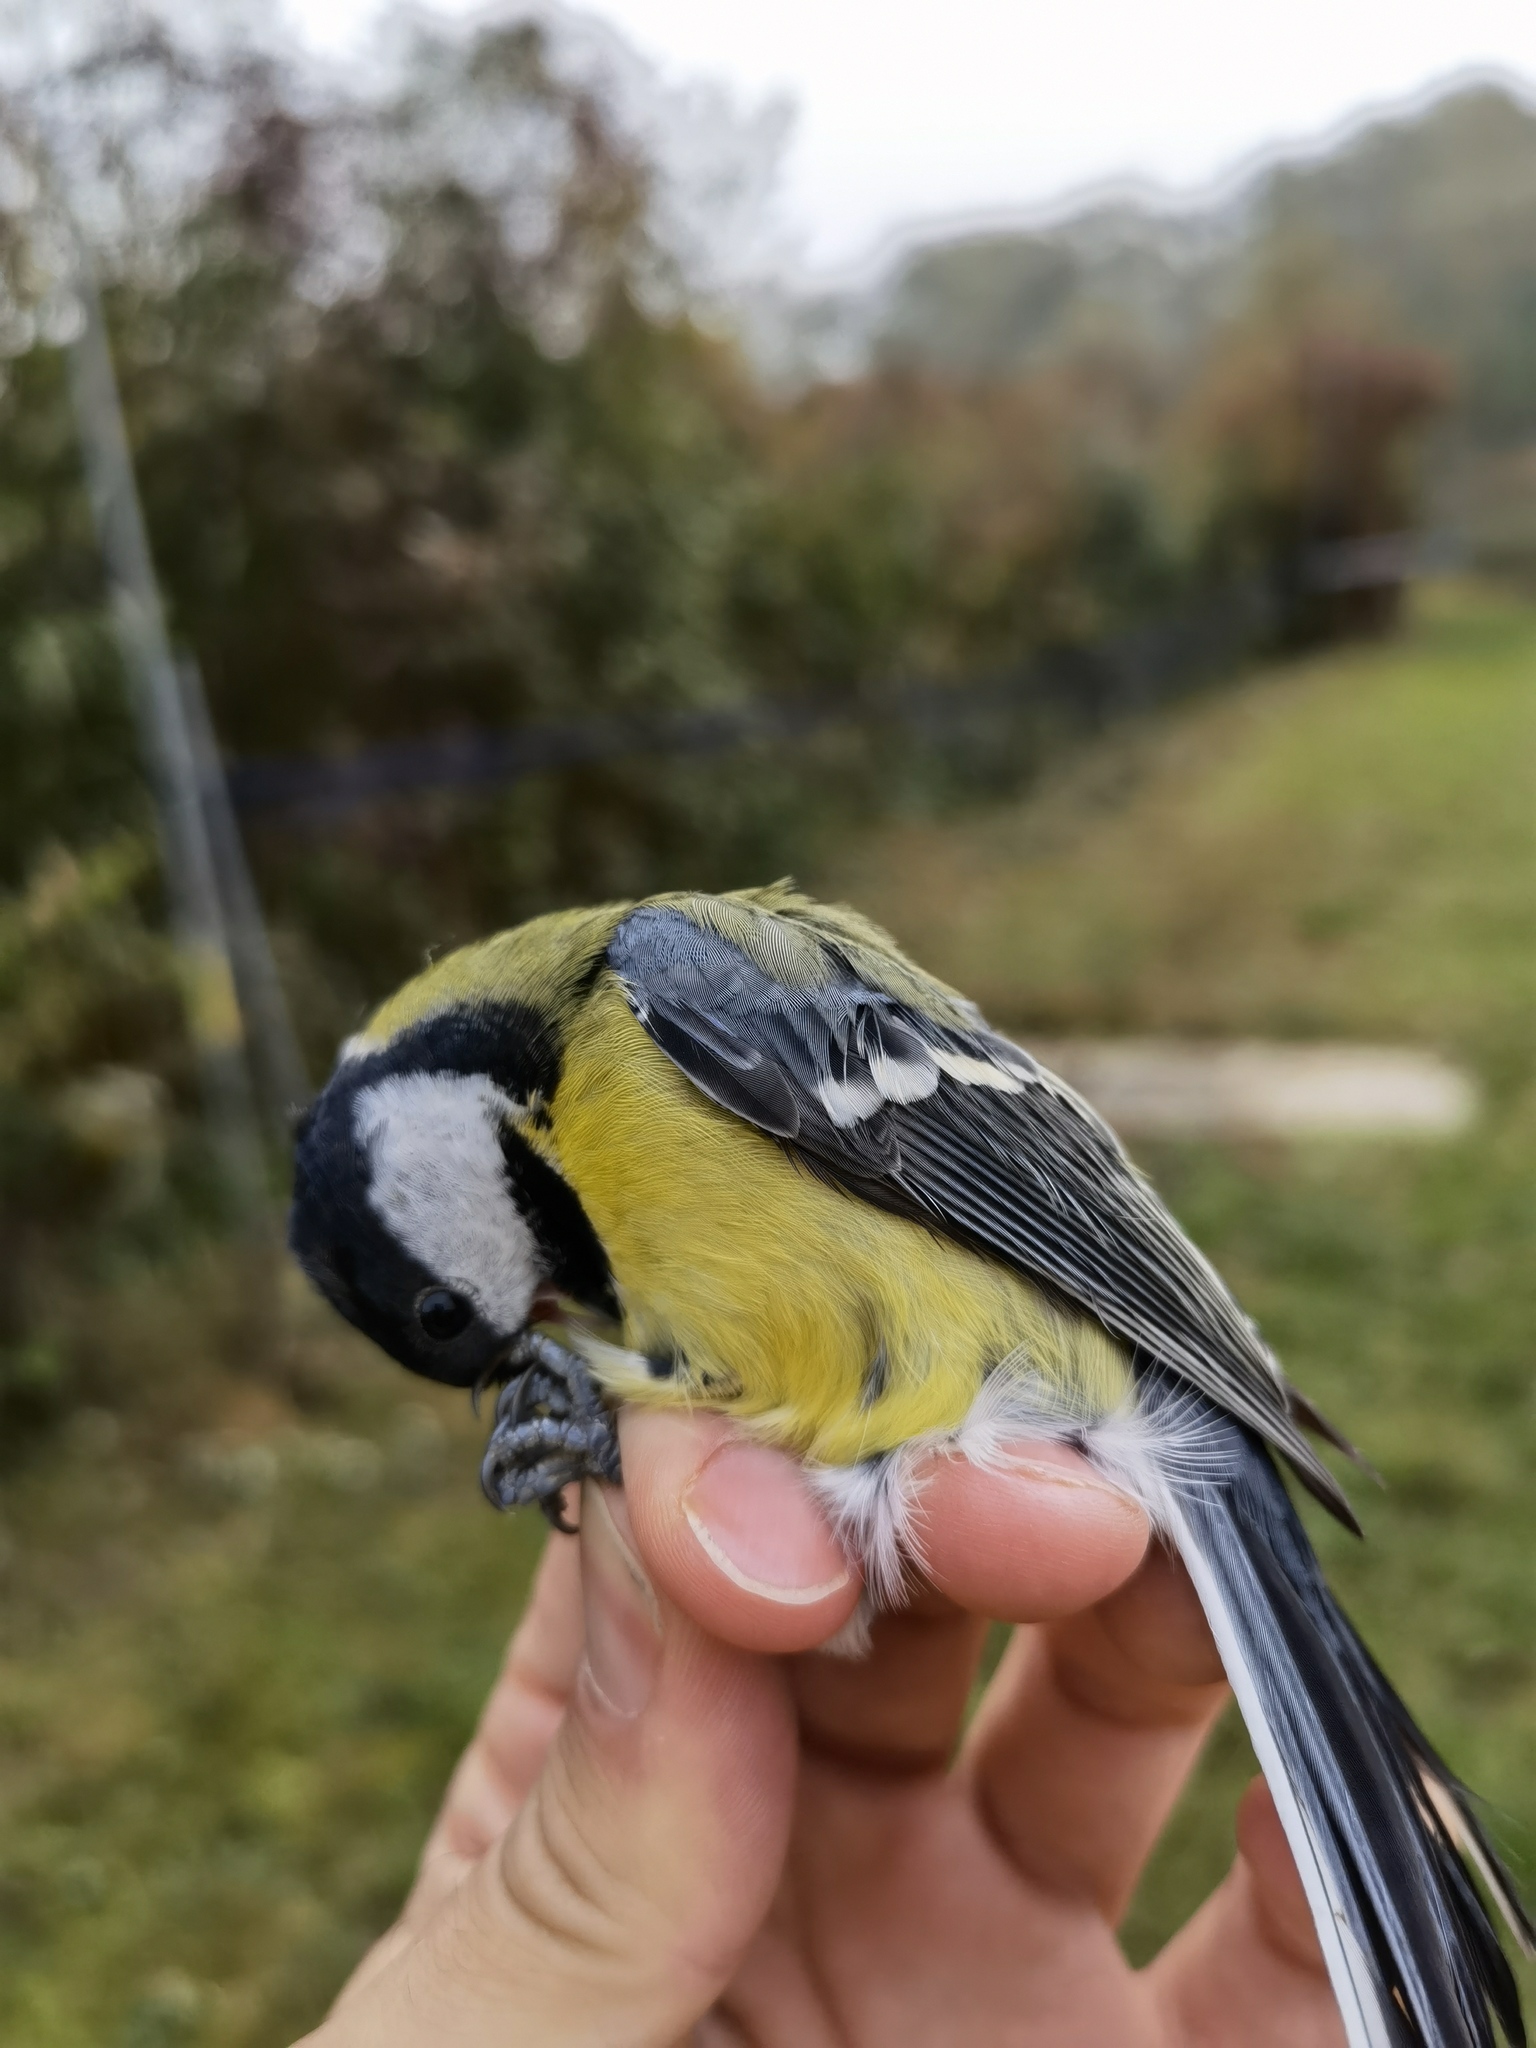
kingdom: Animalia
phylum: Chordata
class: Aves
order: Passeriformes
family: Paridae
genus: Parus
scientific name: Parus major
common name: Great tit
